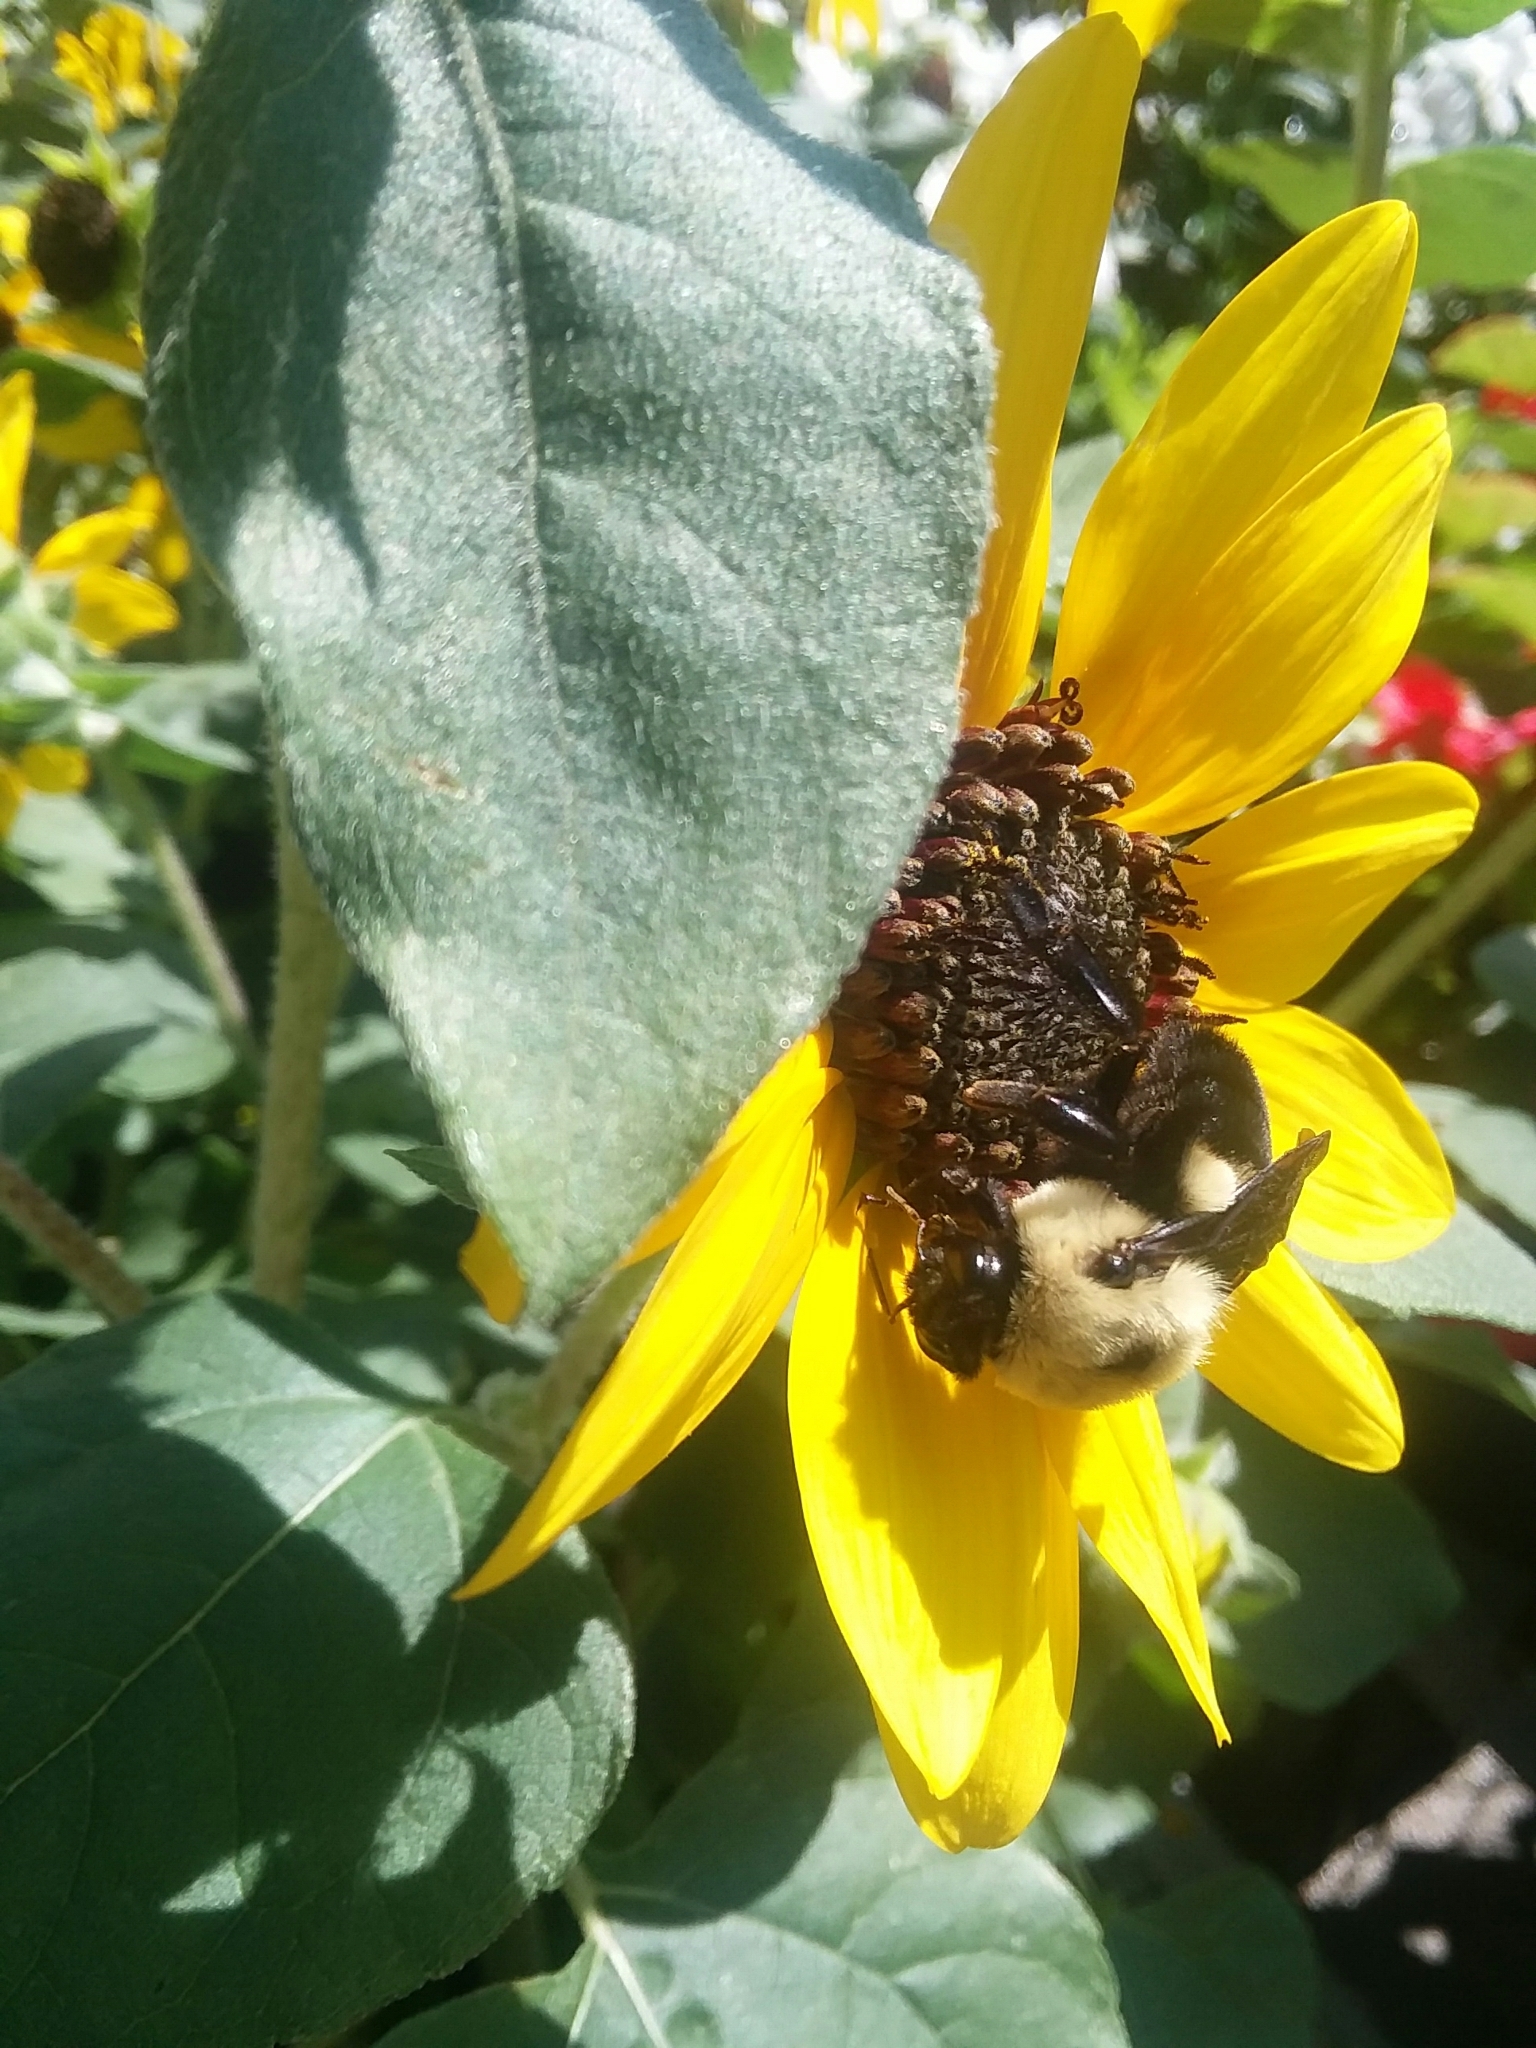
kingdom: Animalia
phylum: Arthropoda
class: Insecta
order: Hymenoptera
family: Apidae
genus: Bombus
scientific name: Bombus griseocollis
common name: Brown-belted bumble bee
